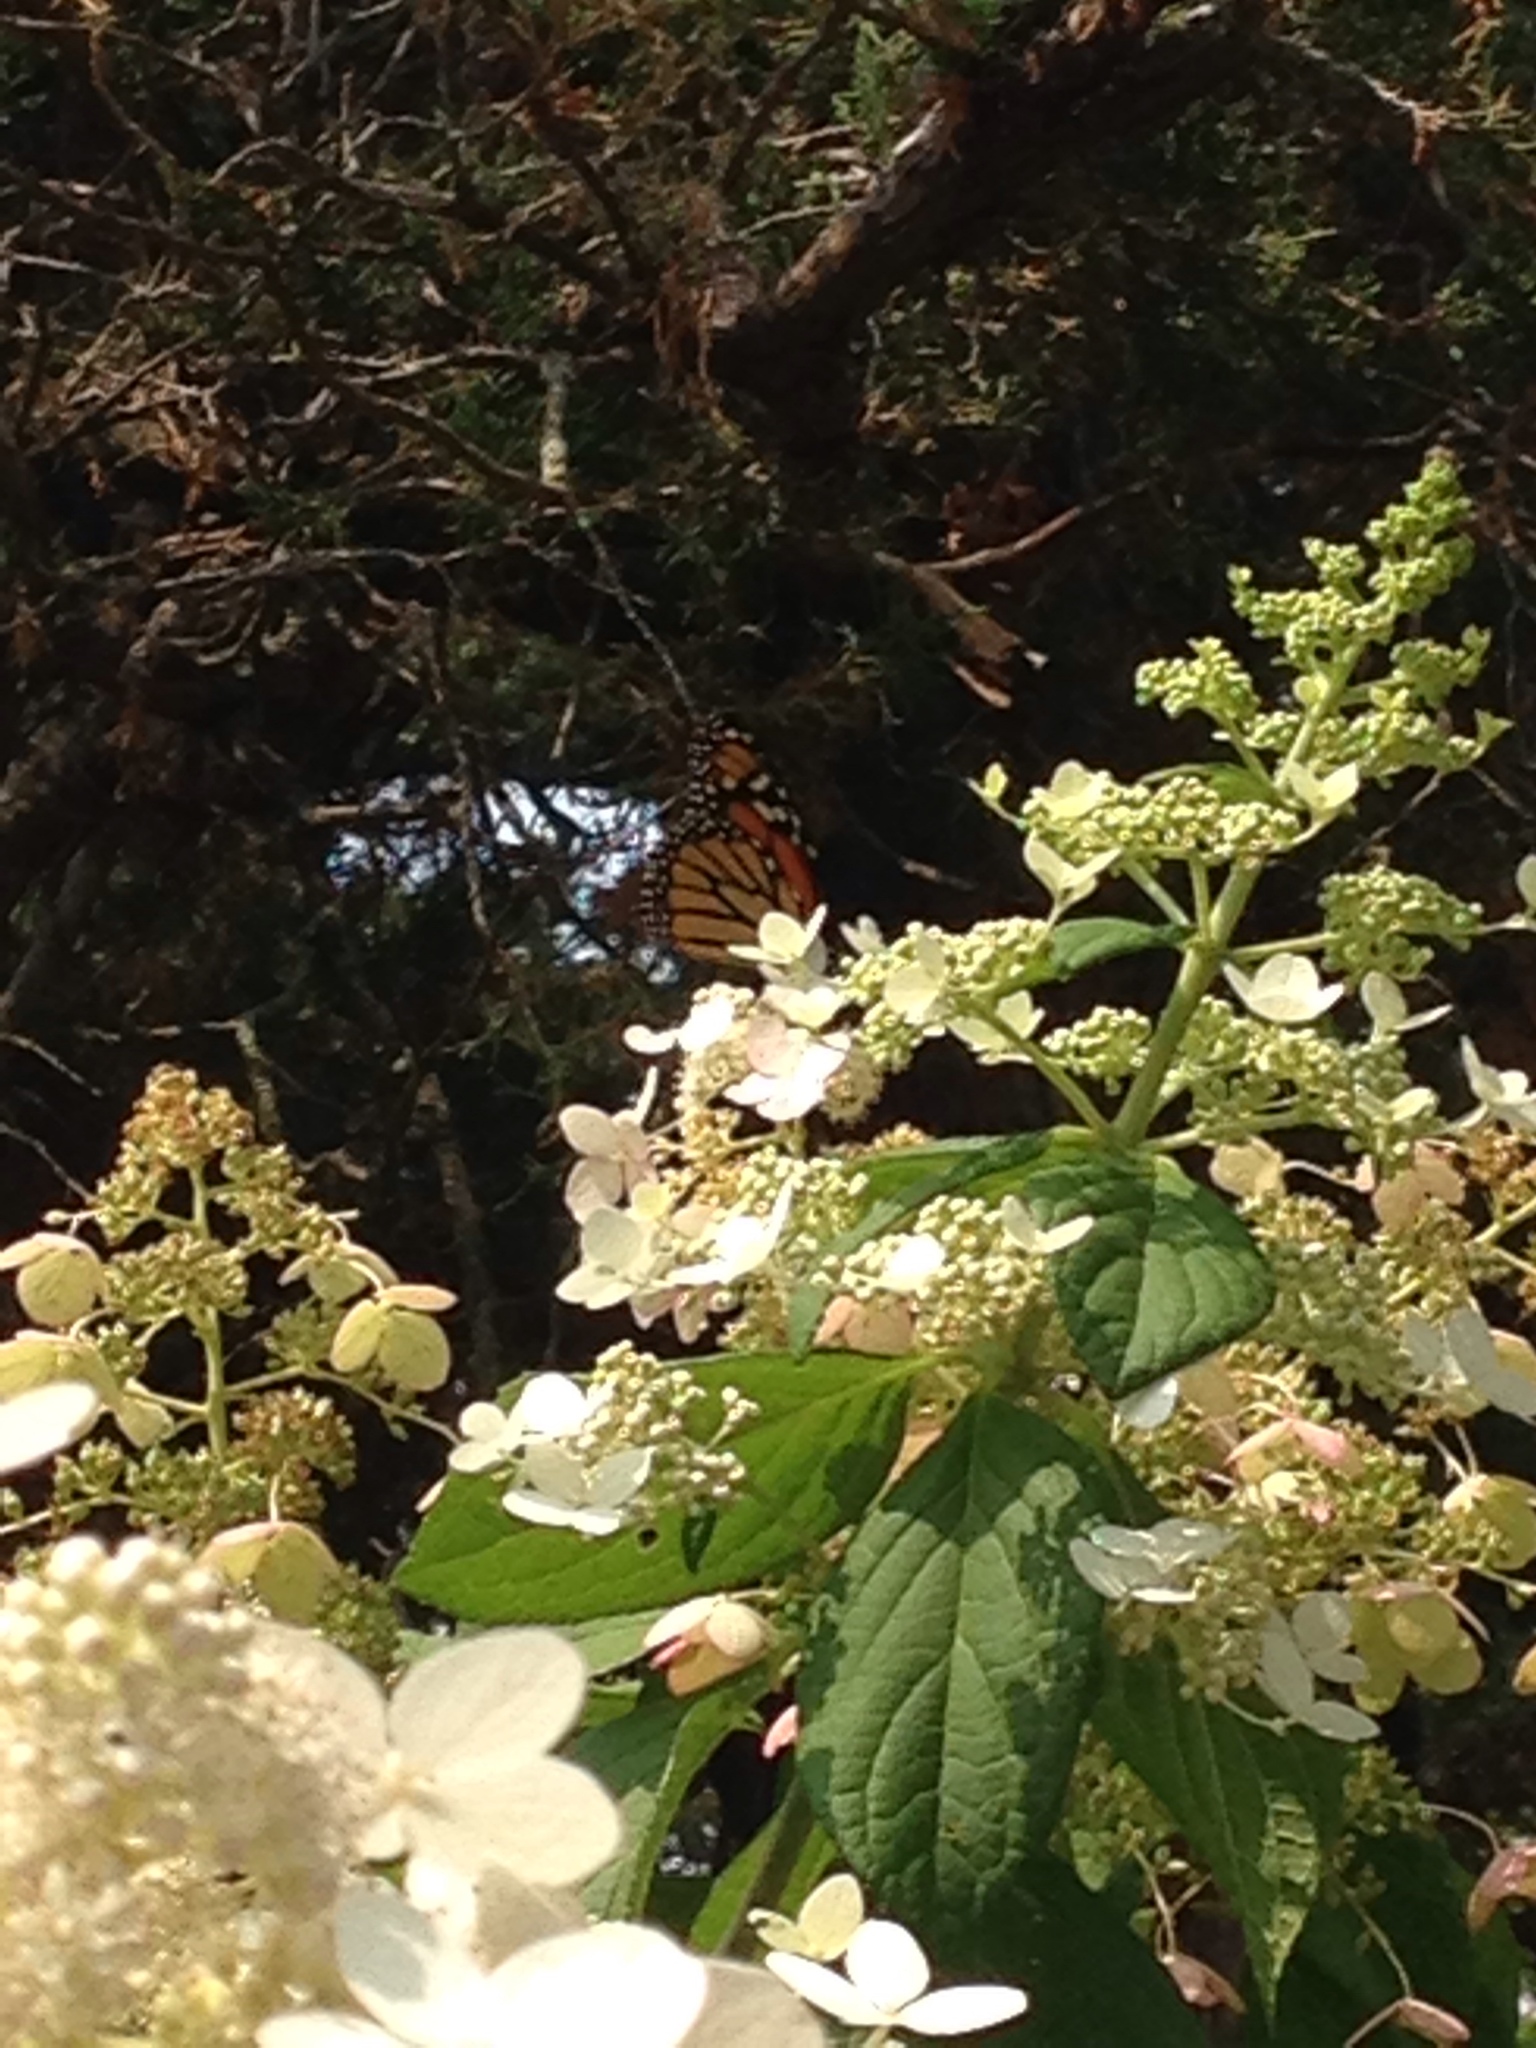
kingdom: Animalia
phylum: Arthropoda
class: Insecta
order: Lepidoptera
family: Nymphalidae
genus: Danaus
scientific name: Danaus plexippus
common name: Monarch
